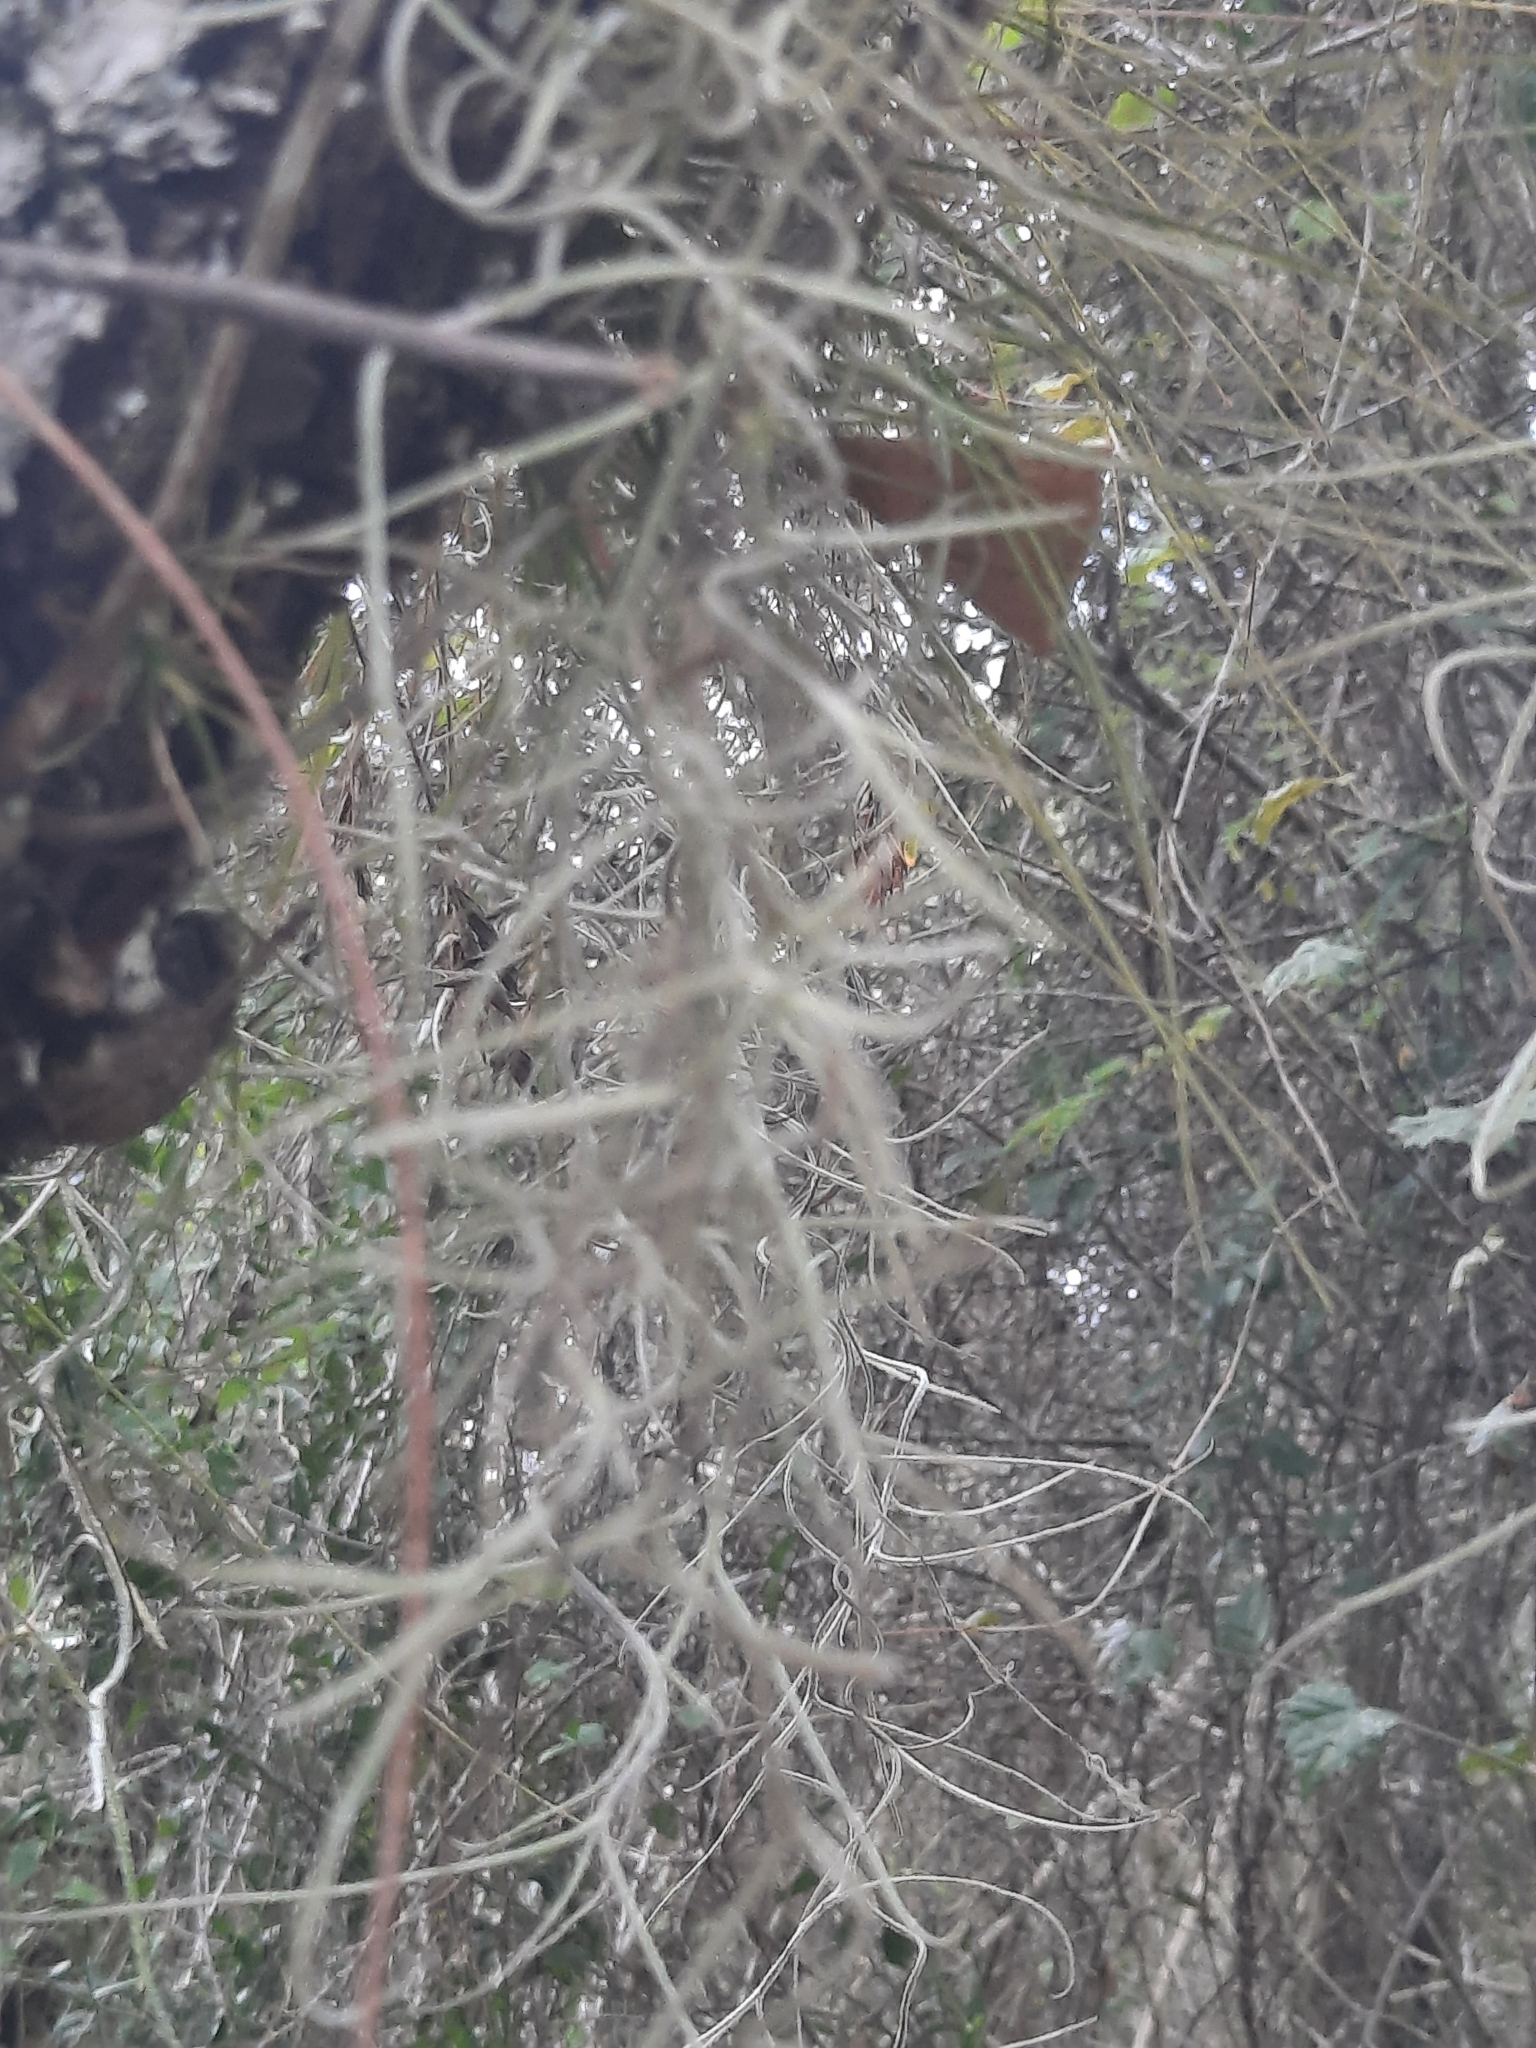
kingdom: Plantae
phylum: Tracheophyta
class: Liliopsida
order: Poales
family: Bromeliaceae
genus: Tillandsia
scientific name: Tillandsia usneoides
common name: Spanish moss
